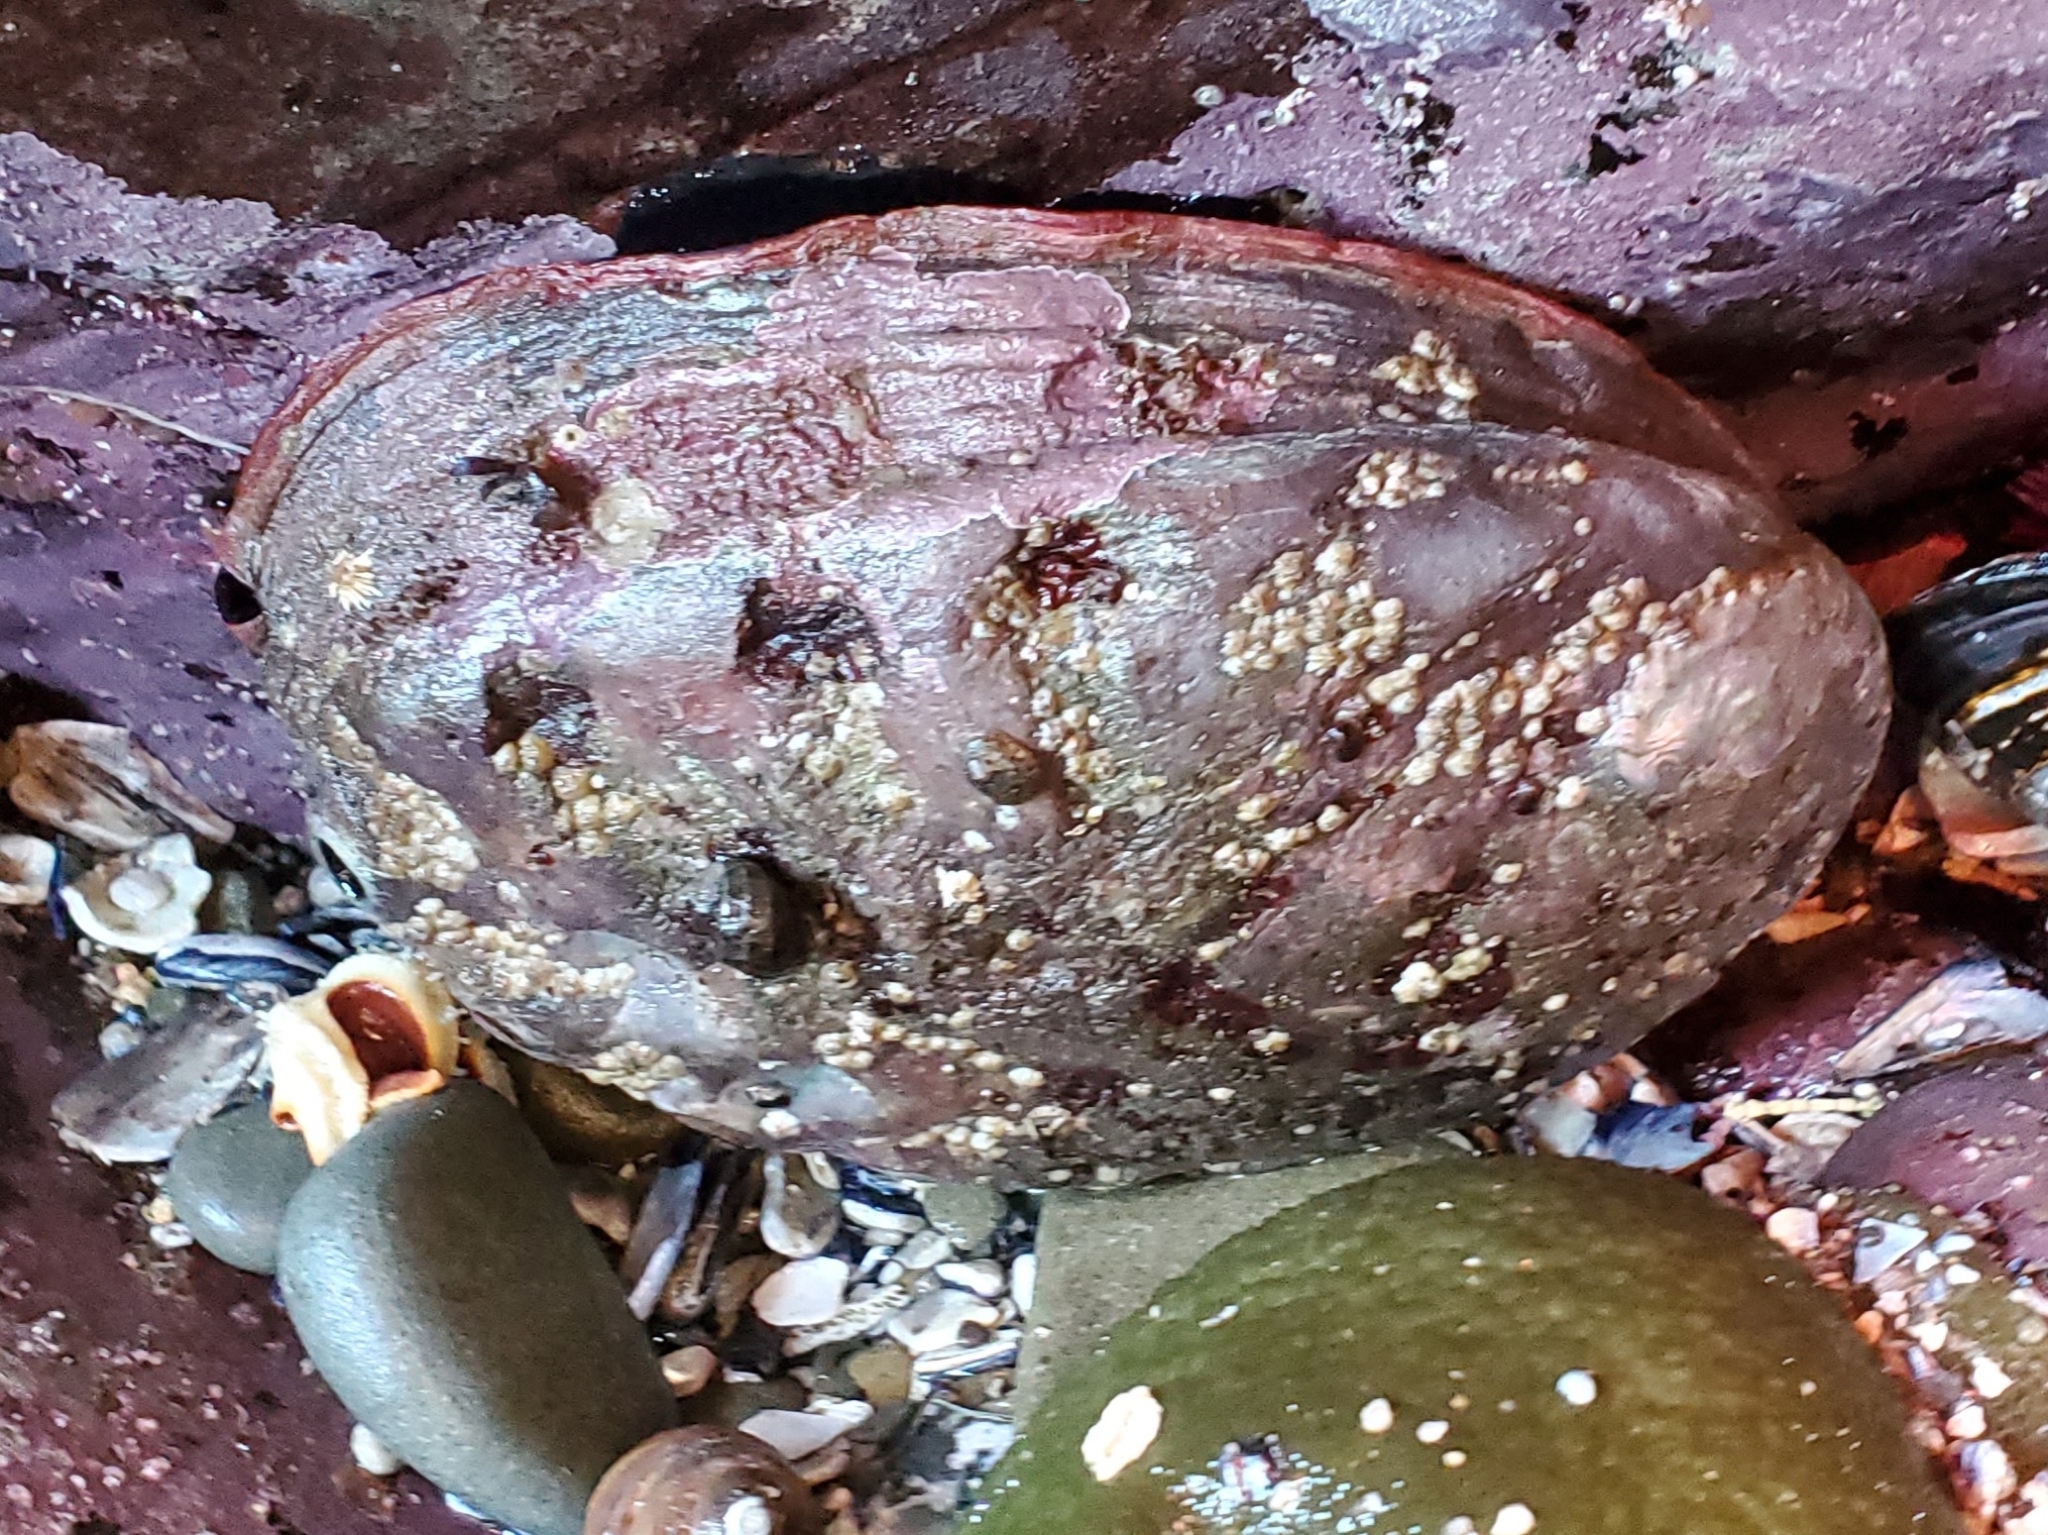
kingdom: Animalia
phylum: Mollusca
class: Gastropoda
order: Lepetellida
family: Haliotidae
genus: Haliotis
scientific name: Haliotis rufescens
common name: Red abalone
